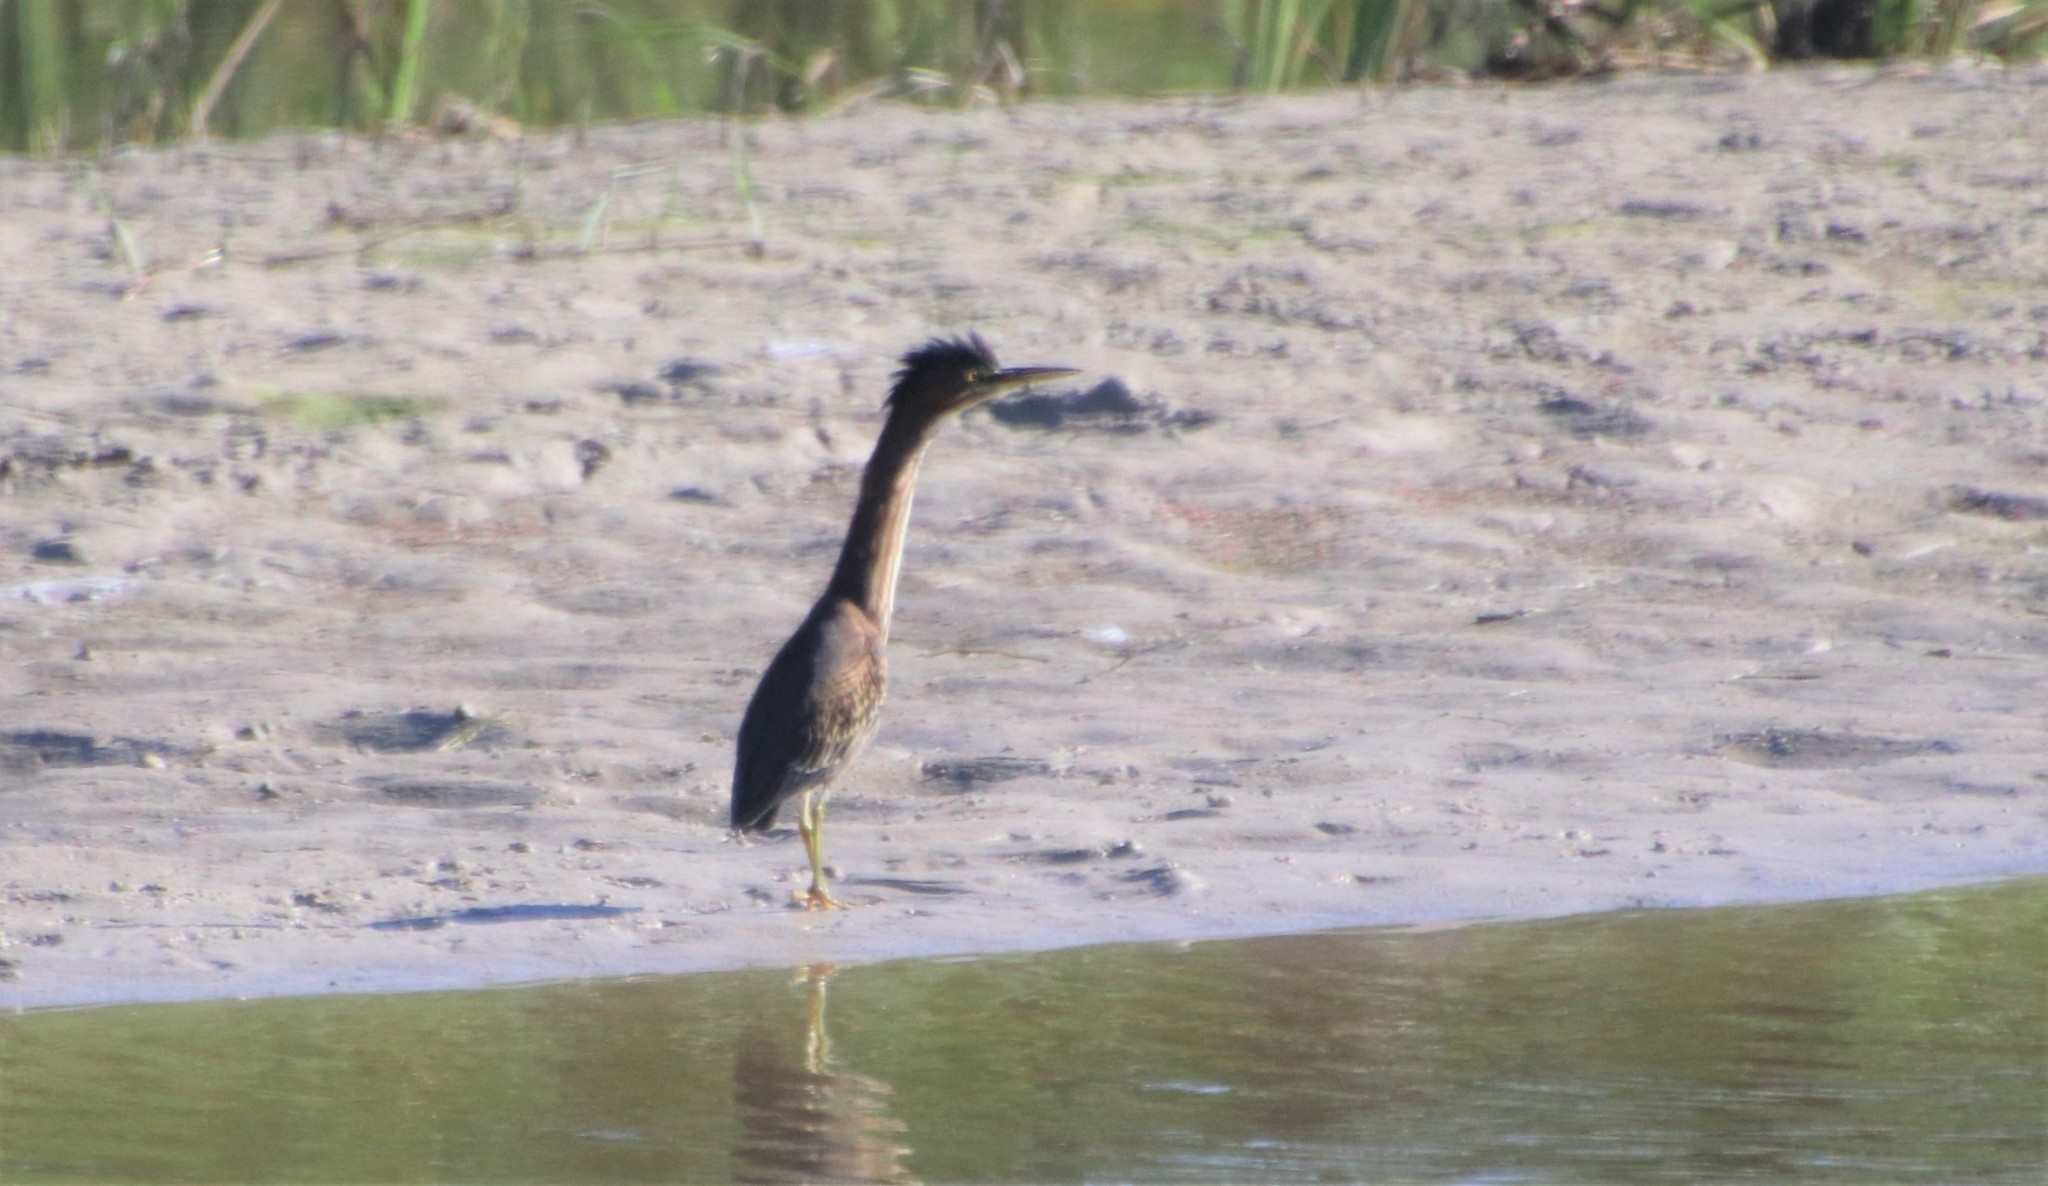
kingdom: Animalia
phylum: Chordata
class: Aves
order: Pelecaniformes
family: Ardeidae
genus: Butorides
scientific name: Butorides virescens
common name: Green heron
